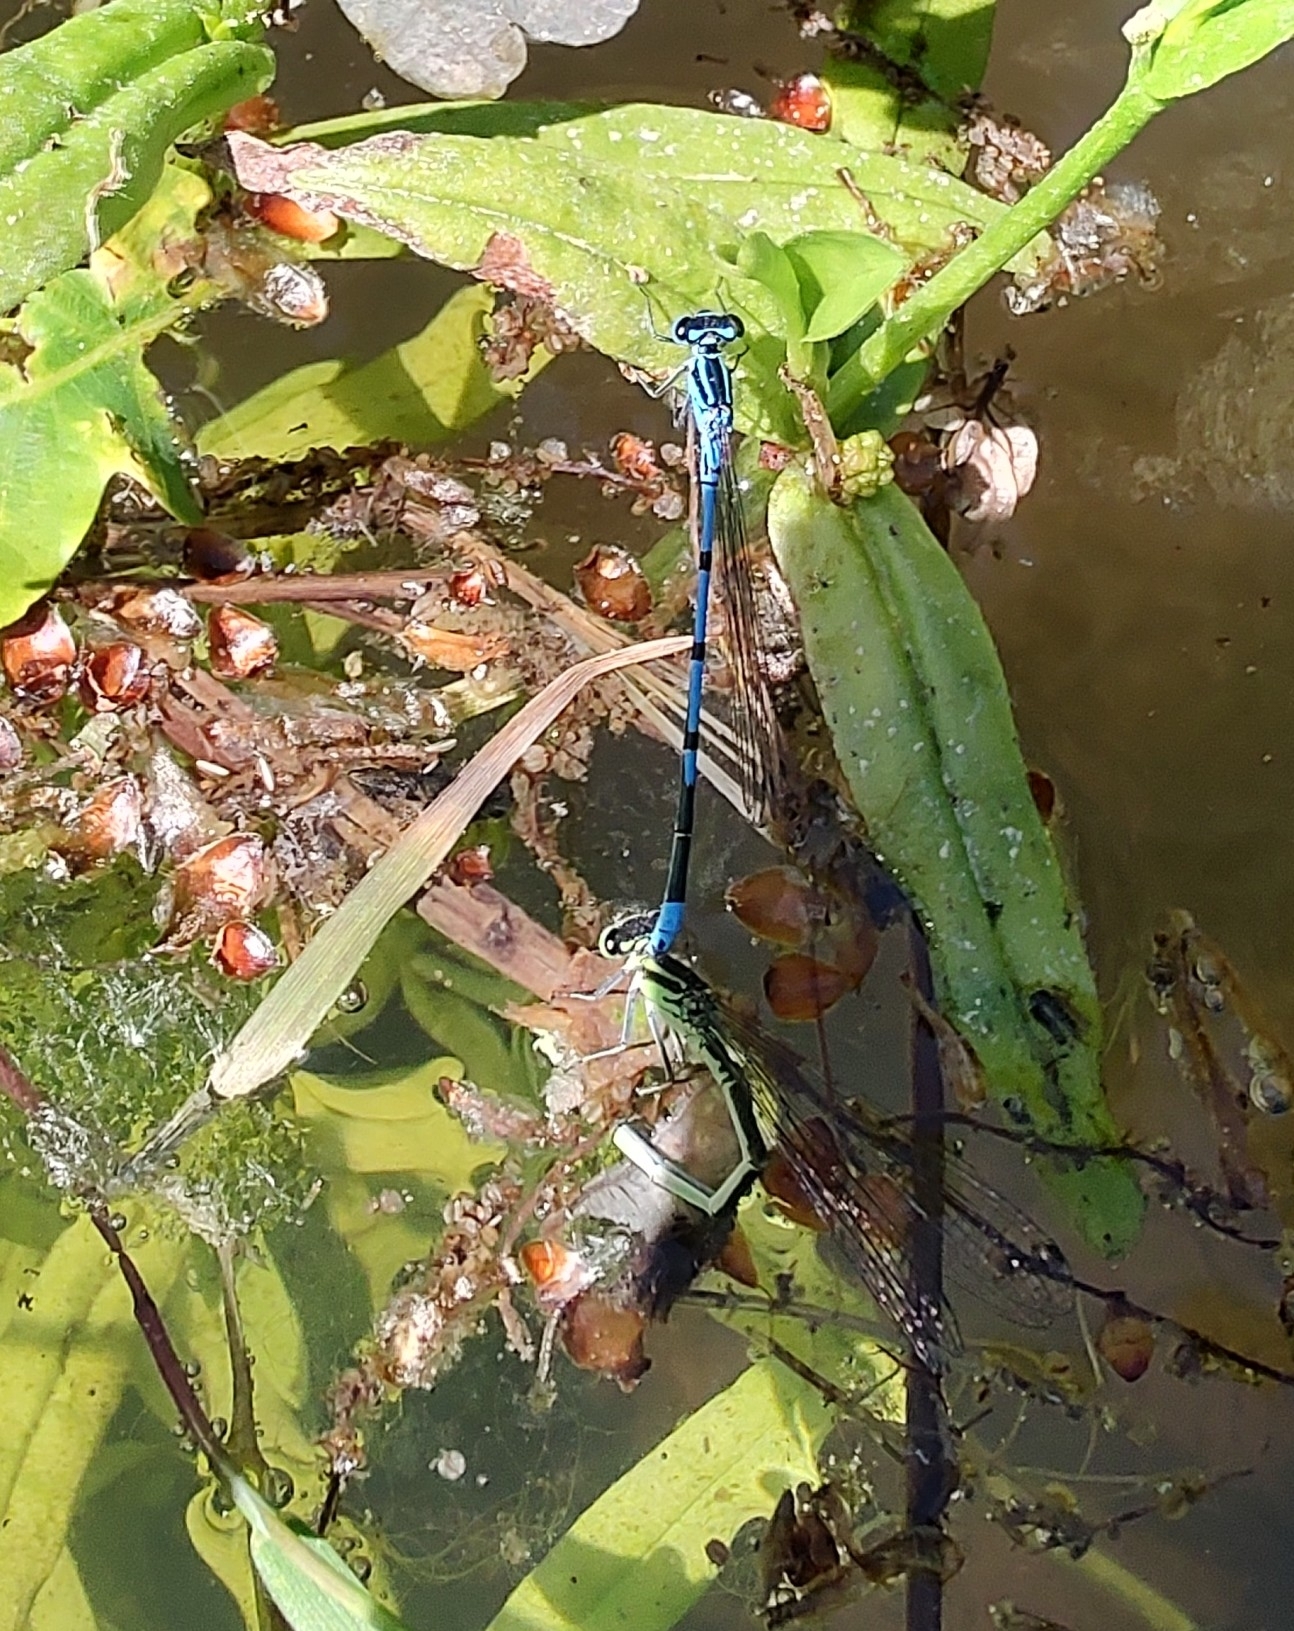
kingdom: Animalia
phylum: Arthropoda
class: Insecta
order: Odonata
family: Coenagrionidae
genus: Coenagrion
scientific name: Coenagrion puella
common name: Azure damselfly
